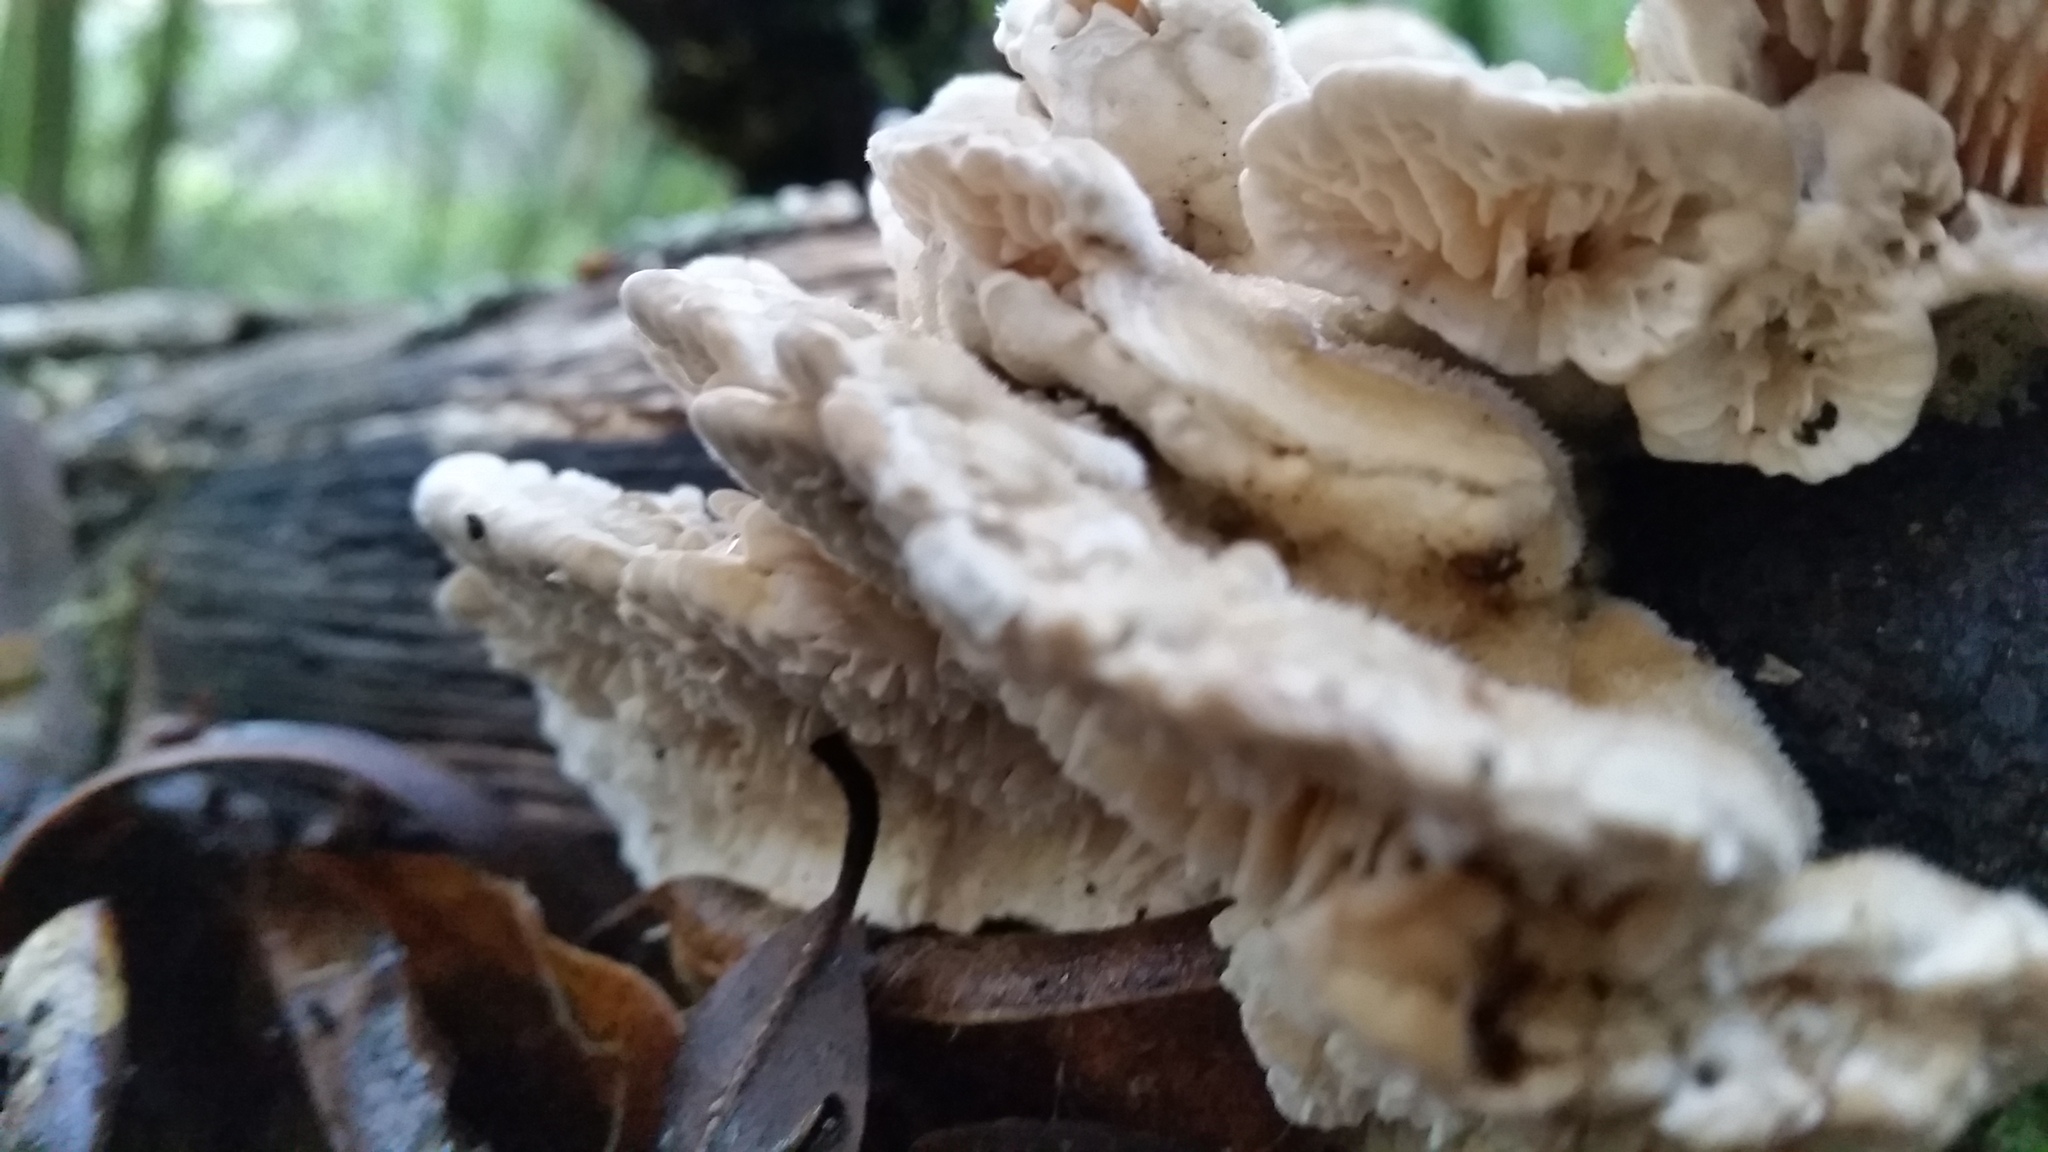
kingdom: Fungi
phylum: Basidiomycota
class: Agaricomycetes
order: Polyporales
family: Polyporaceae
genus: Lenzites
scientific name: Lenzites betulinus
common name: Birch mazegill
